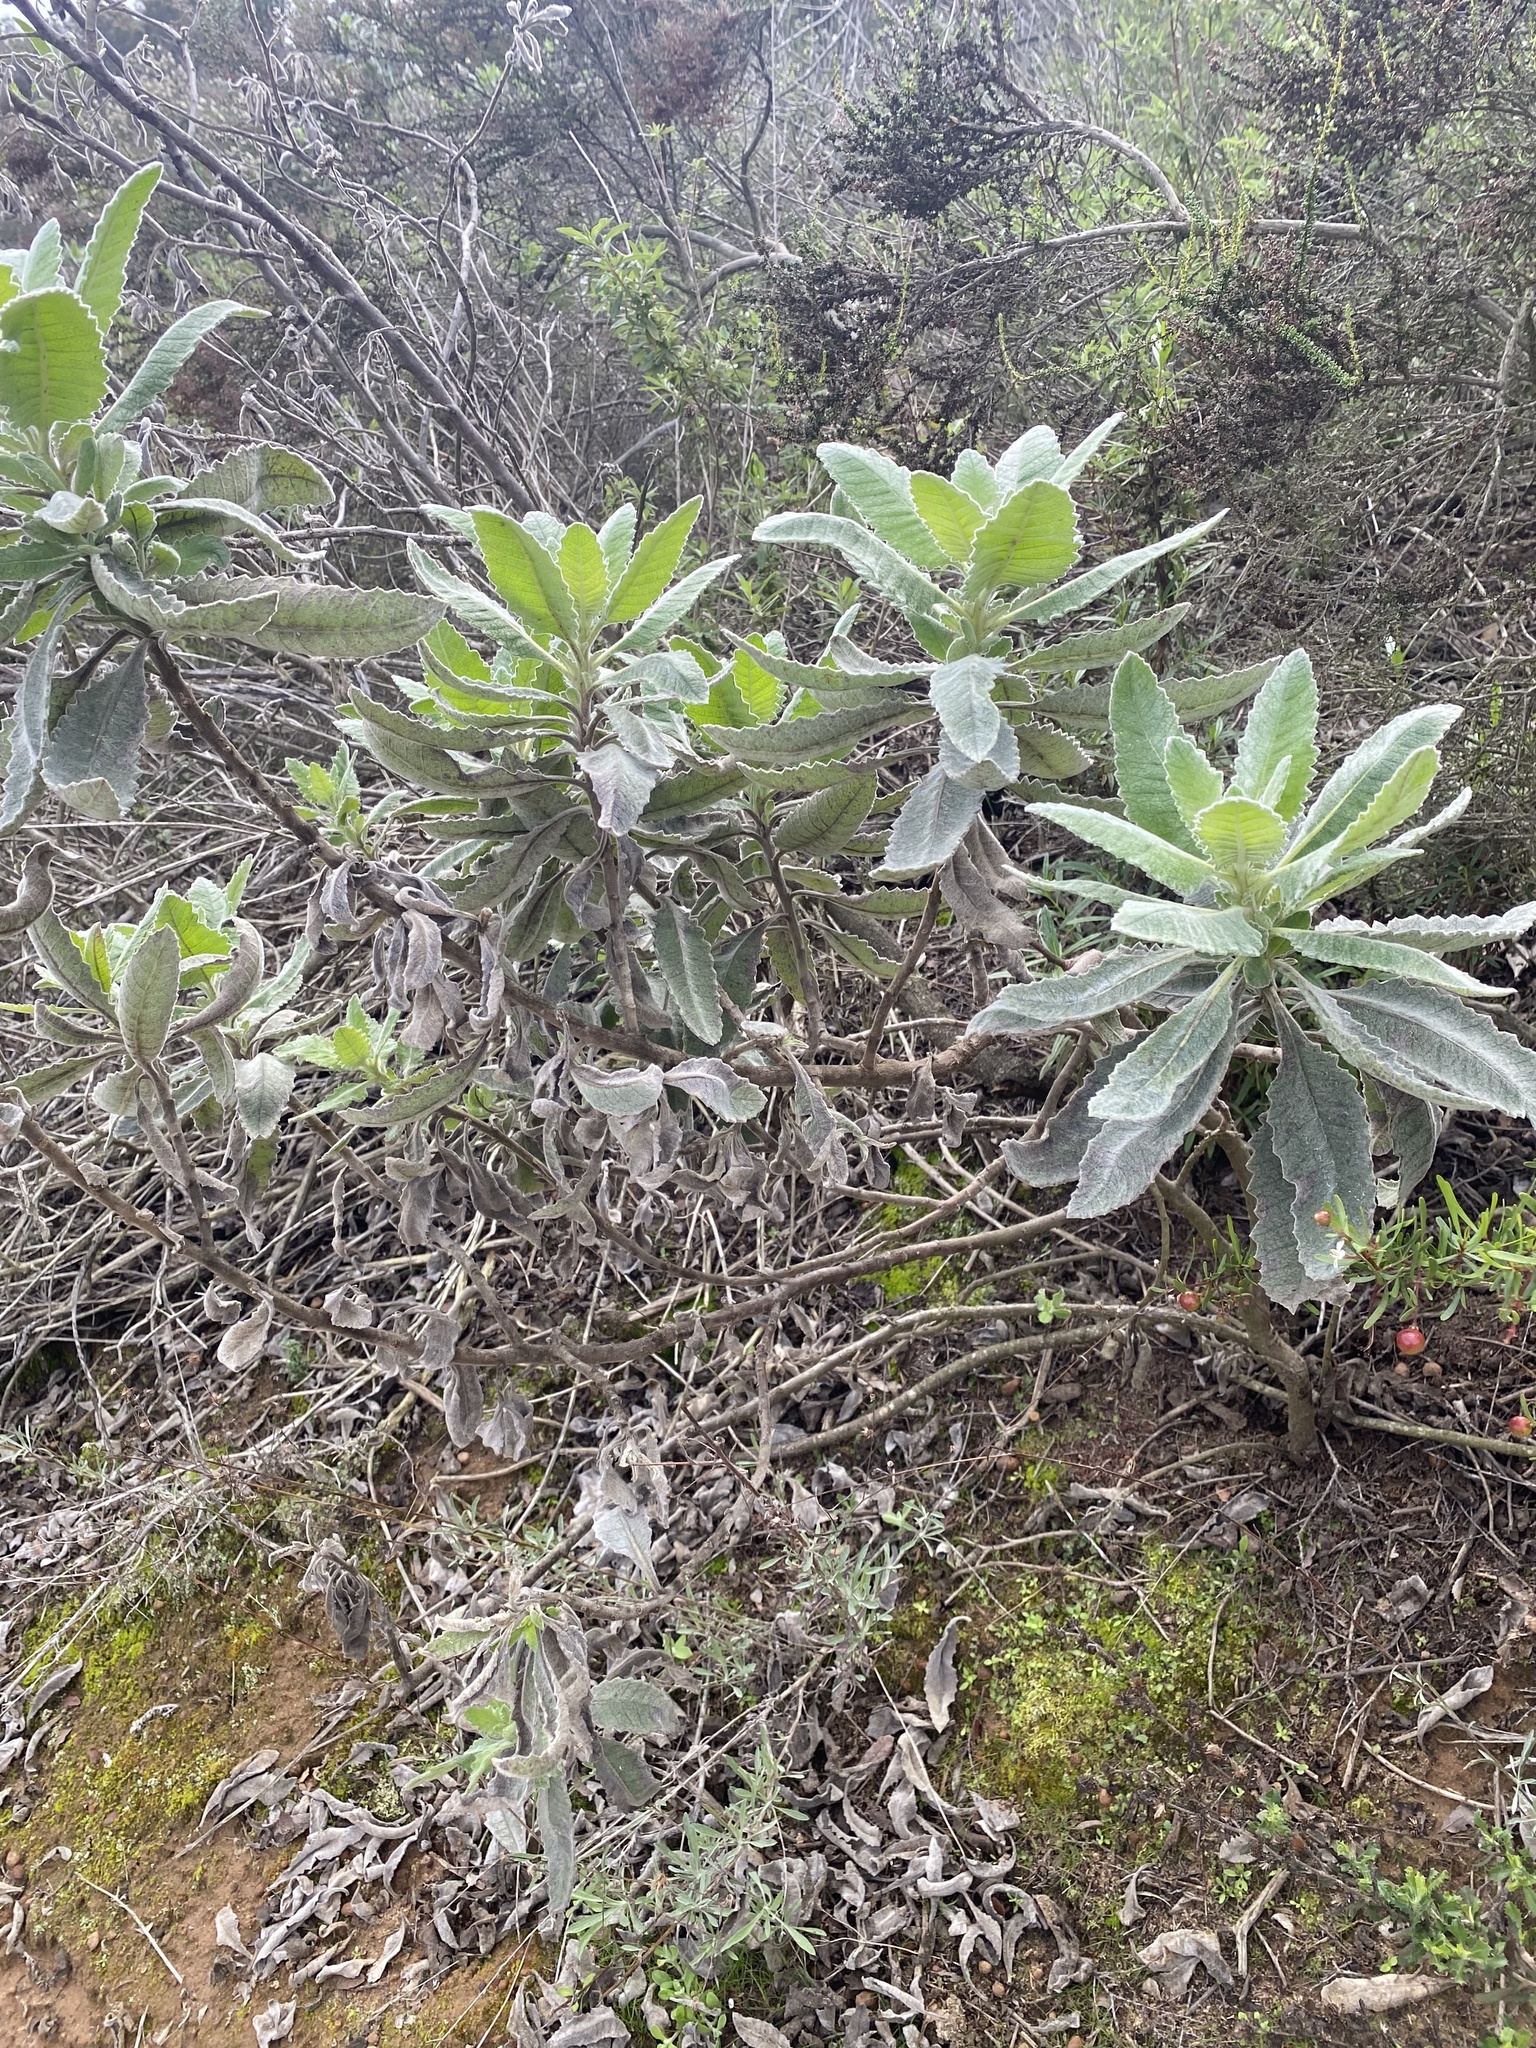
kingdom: Plantae
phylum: Tracheophyta
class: Magnoliopsida
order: Boraginales
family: Namaceae
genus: Eriodictyon
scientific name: Eriodictyon crassifolium
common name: Thick-leaf yerba-santa
